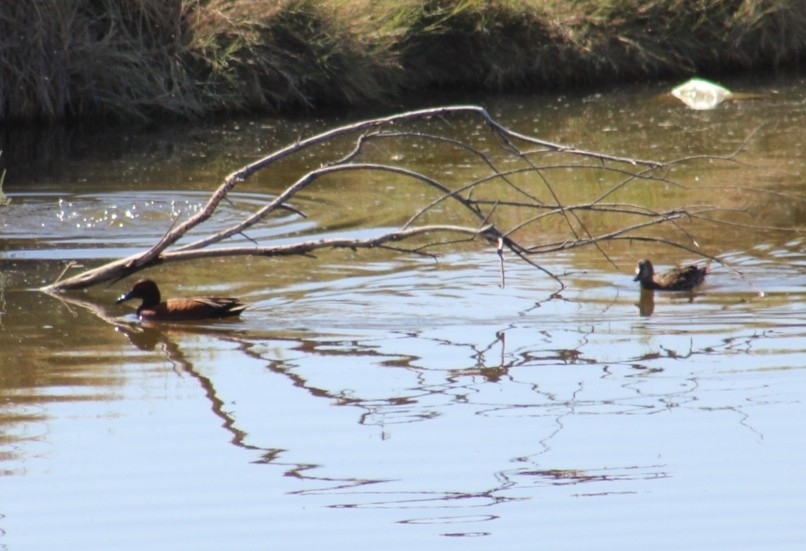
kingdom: Animalia
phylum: Chordata
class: Aves
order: Anseriformes
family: Anatidae
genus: Spatula
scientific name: Spatula cyanoptera
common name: Cinnamon teal
